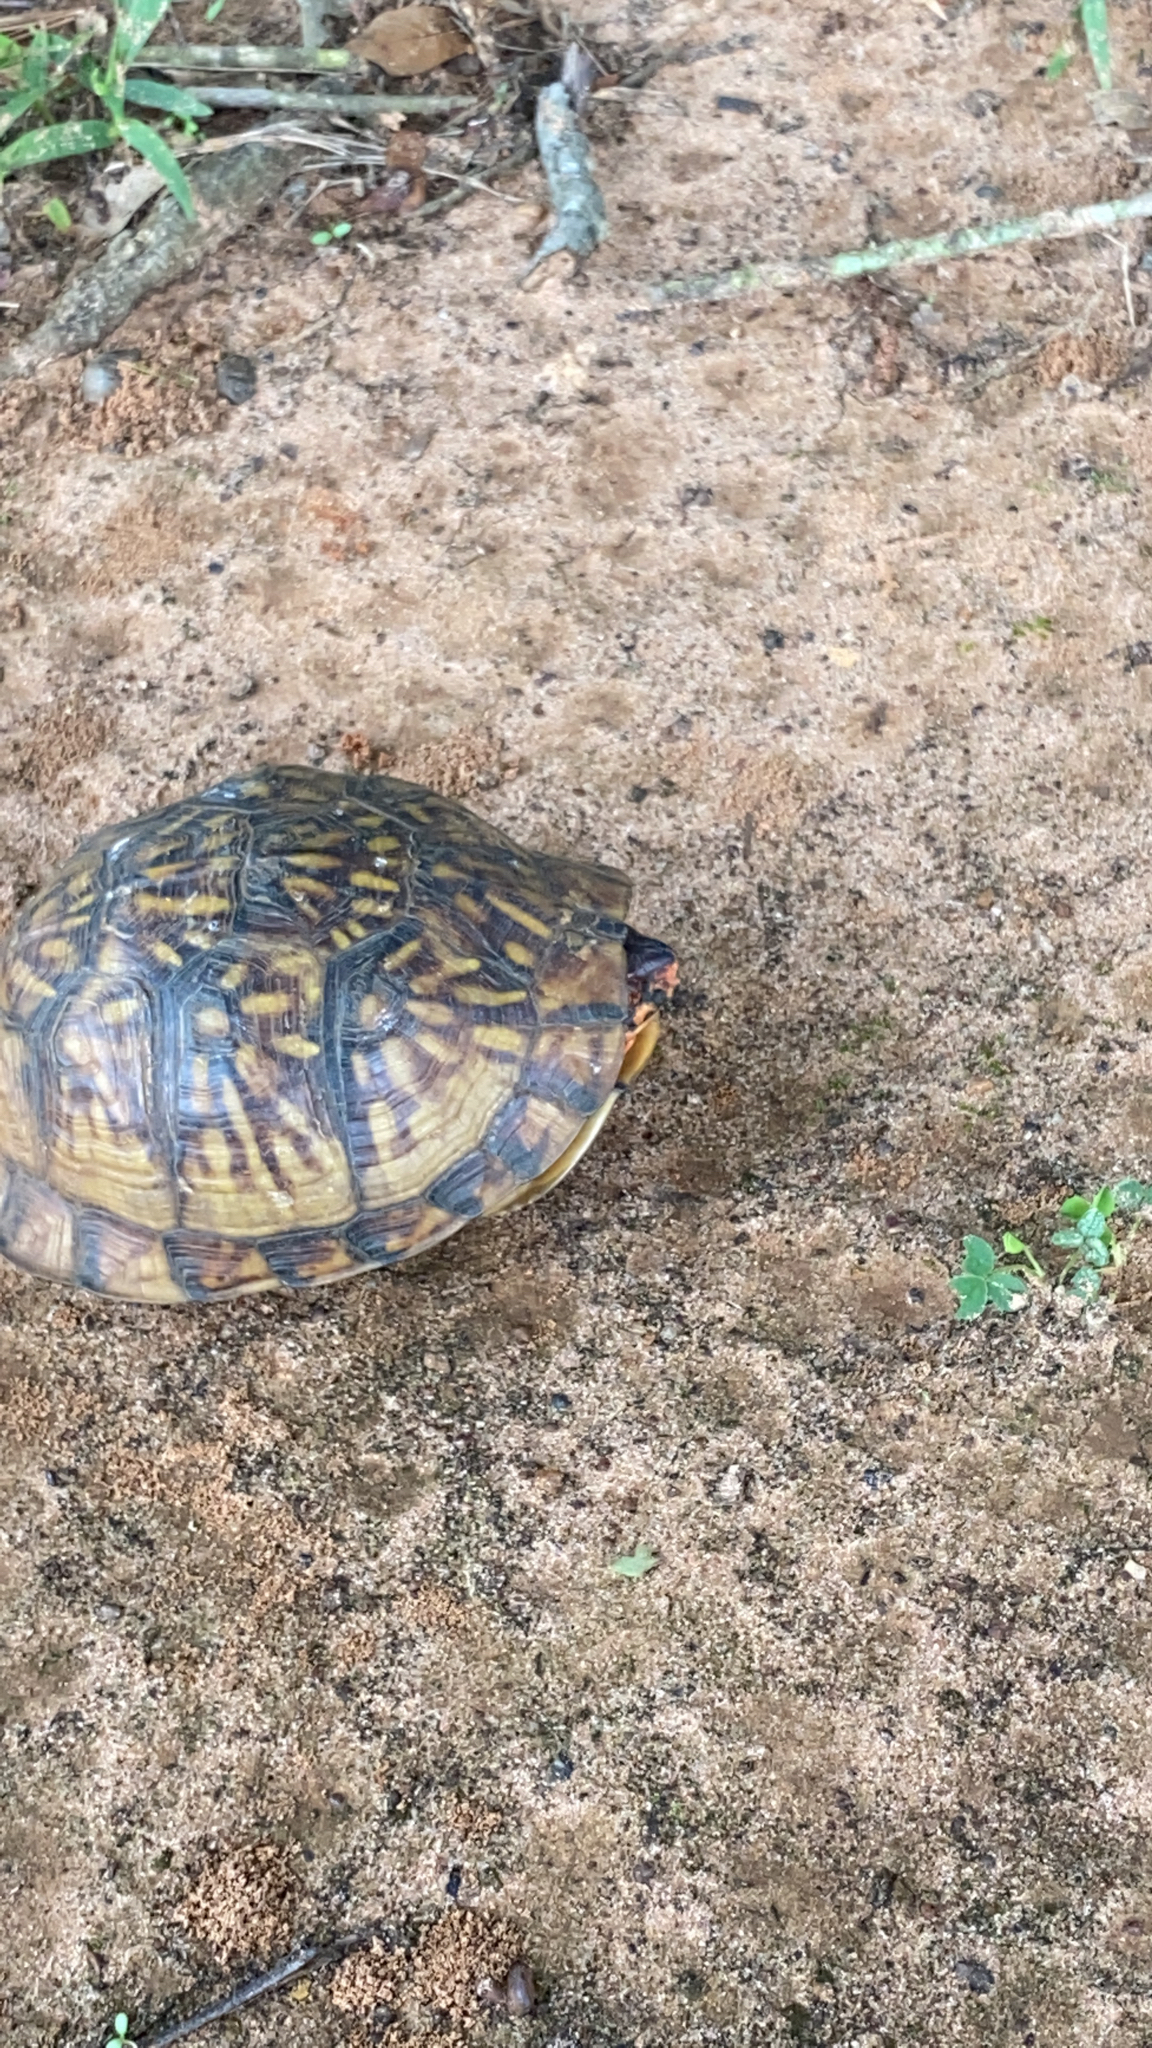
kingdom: Animalia
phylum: Chordata
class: Testudines
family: Emydidae
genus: Terrapene
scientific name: Terrapene carolina
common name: Common box turtle
